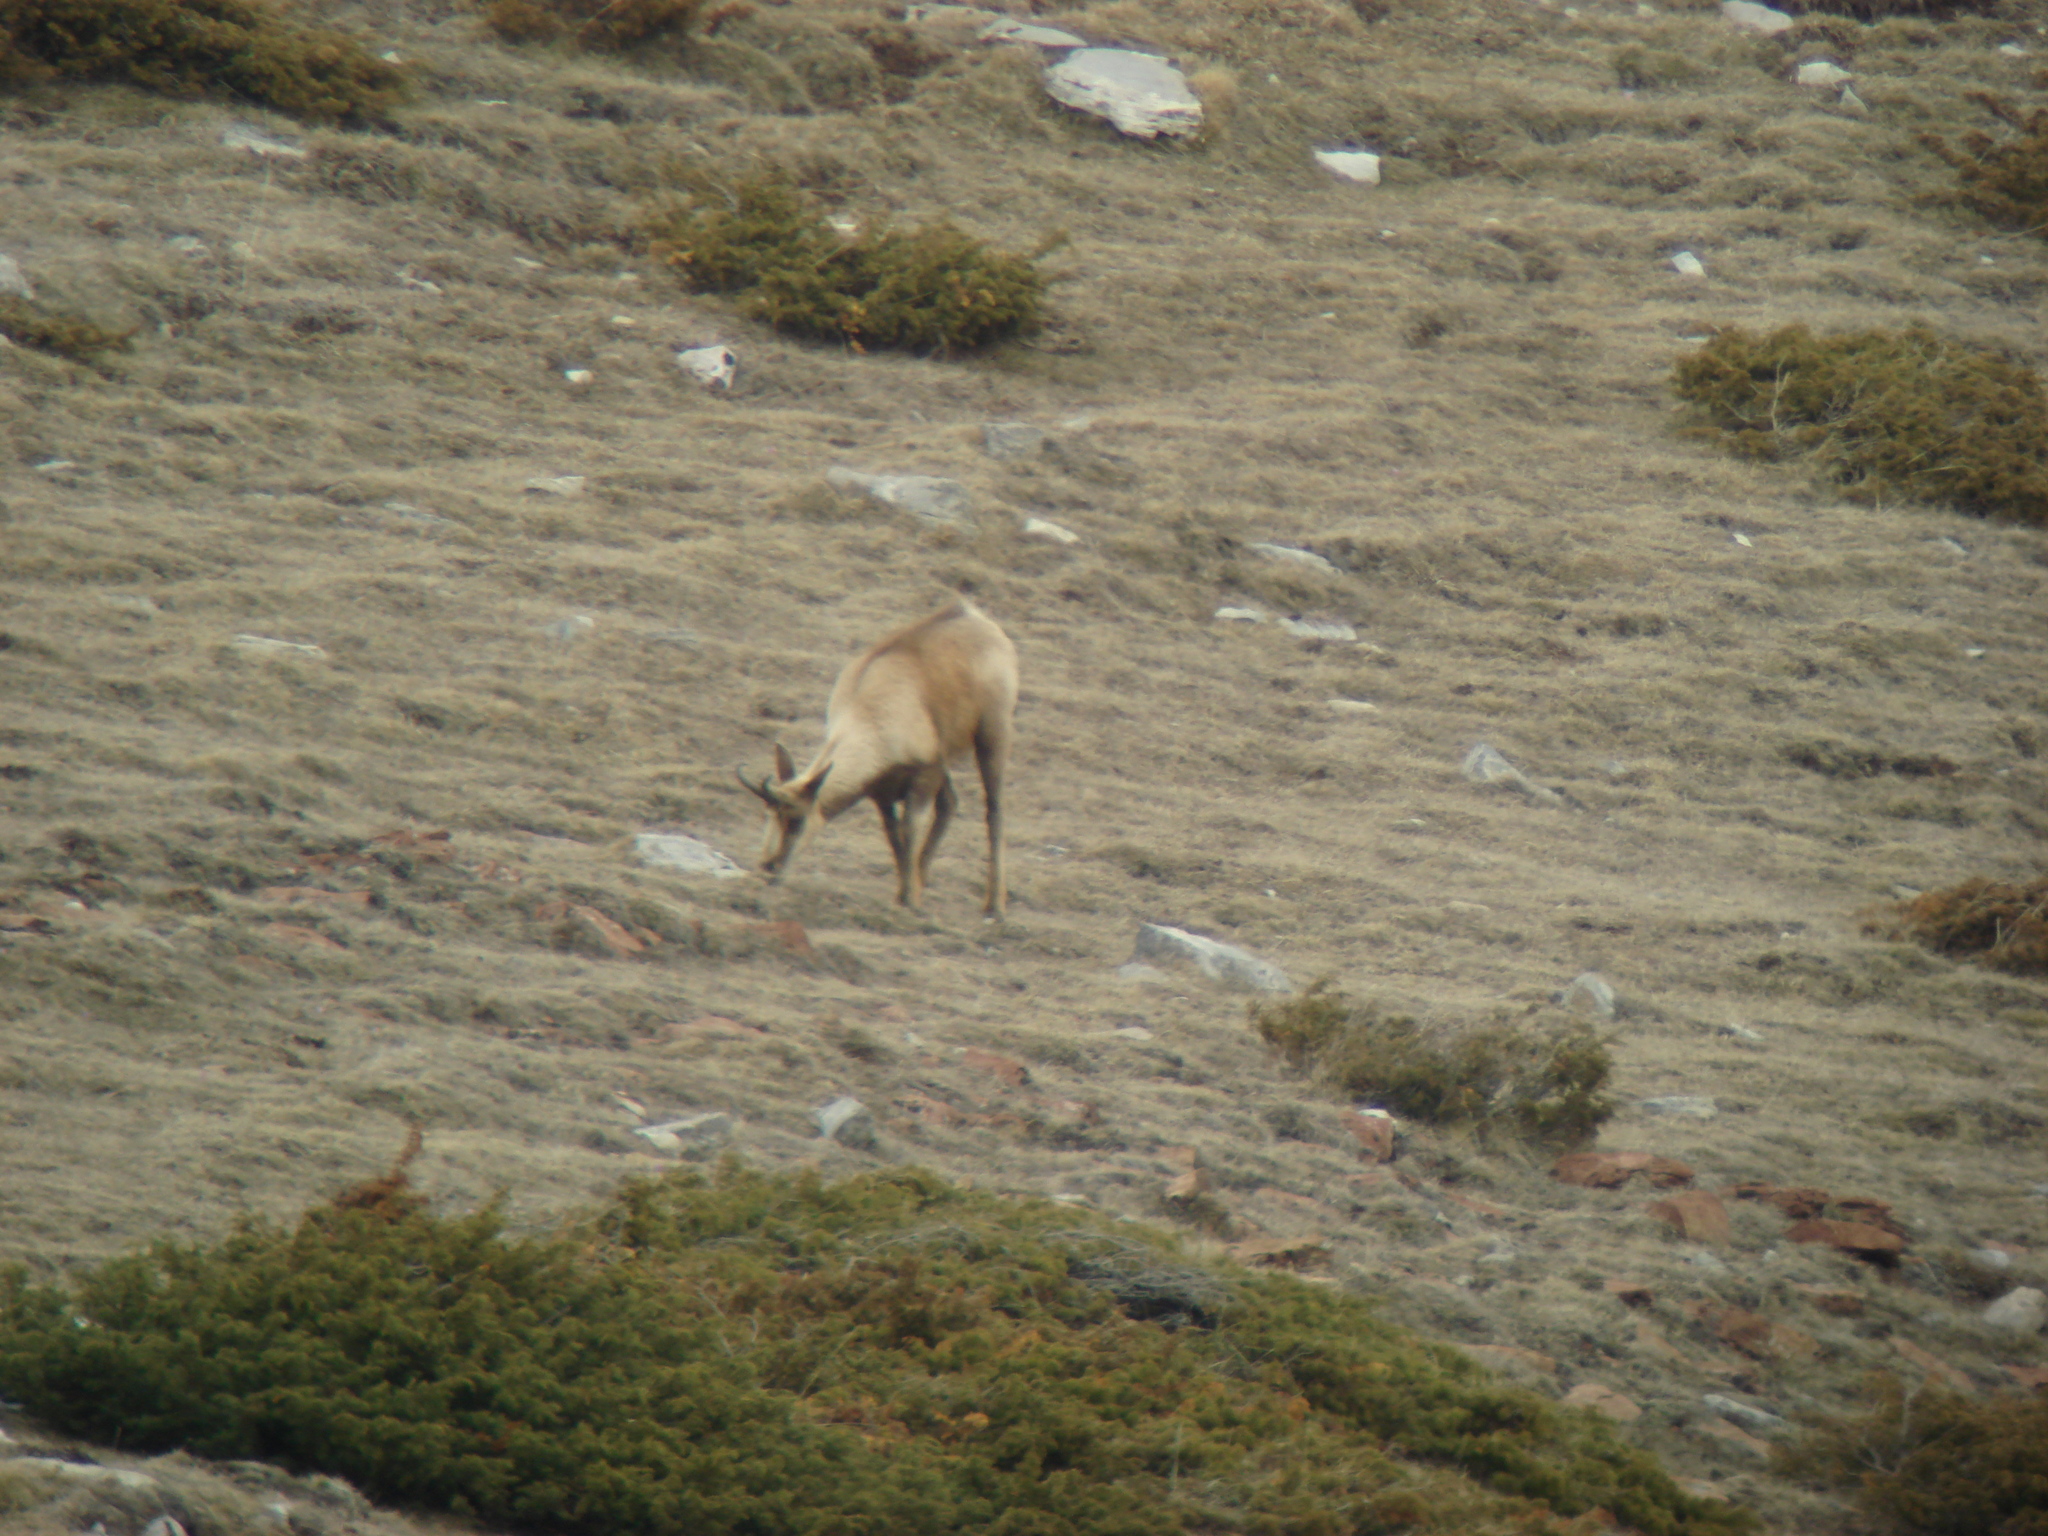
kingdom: Animalia
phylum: Chordata
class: Mammalia
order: Artiodactyla
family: Bovidae
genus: Rupicapra
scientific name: Rupicapra pyrenaica
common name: Pyrenean chamois
